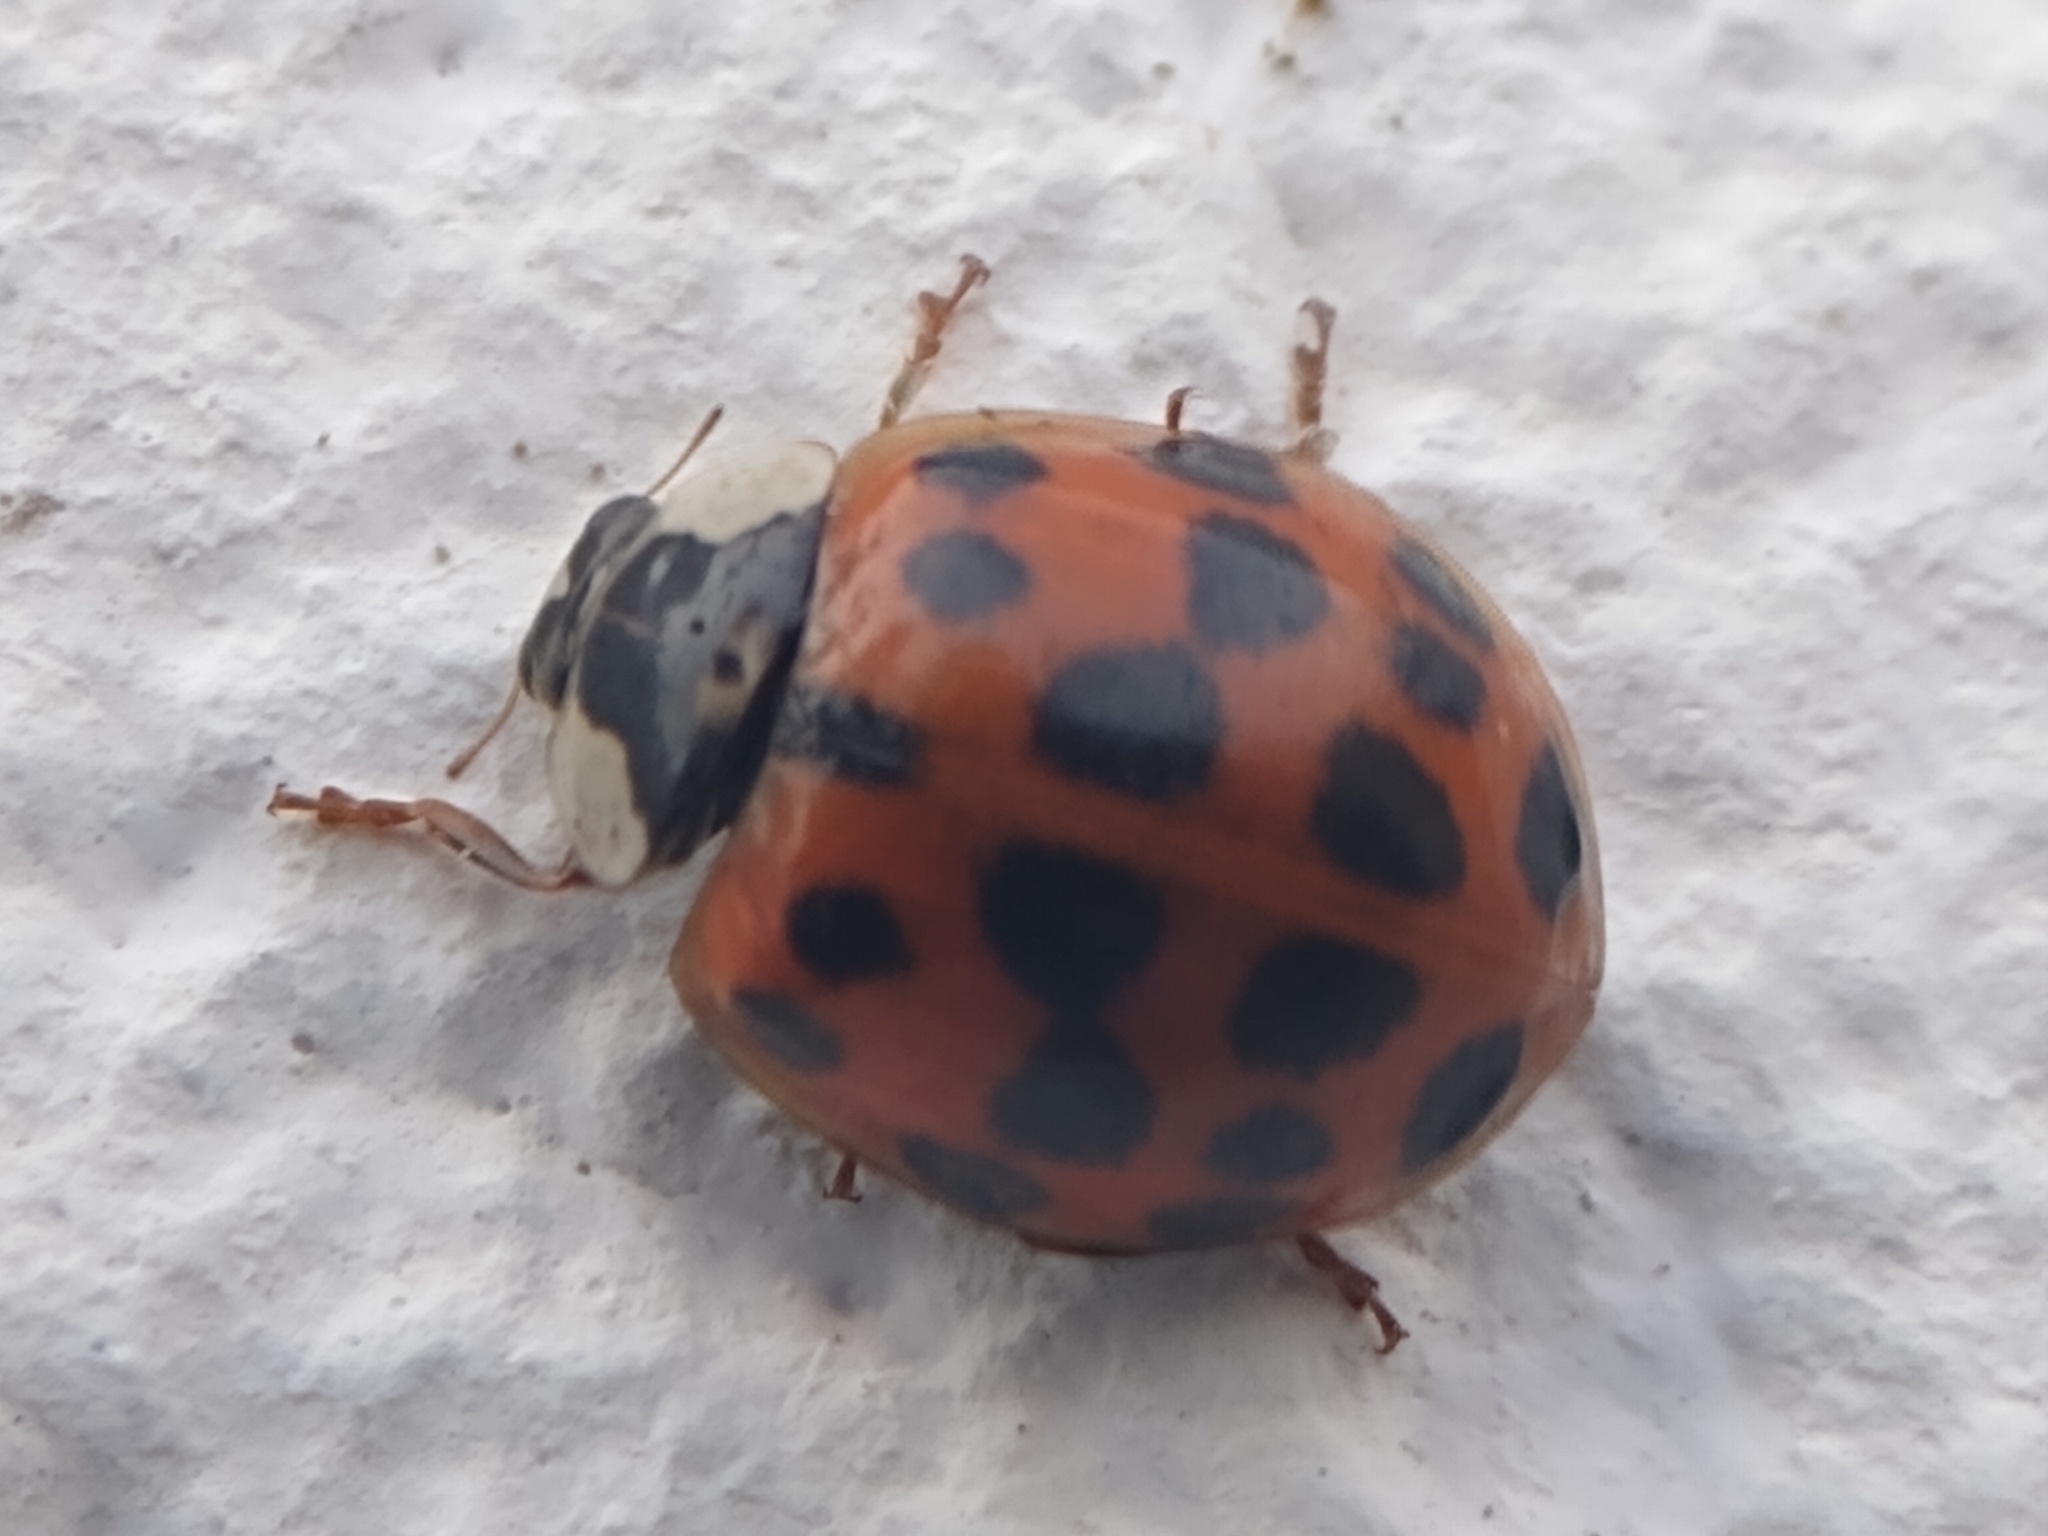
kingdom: Animalia
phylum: Arthropoda
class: Insecta
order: Coleoptera
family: Coccinellidae
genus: Harmonia
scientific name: Harmonia axyridis
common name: Harlequin ladybird
